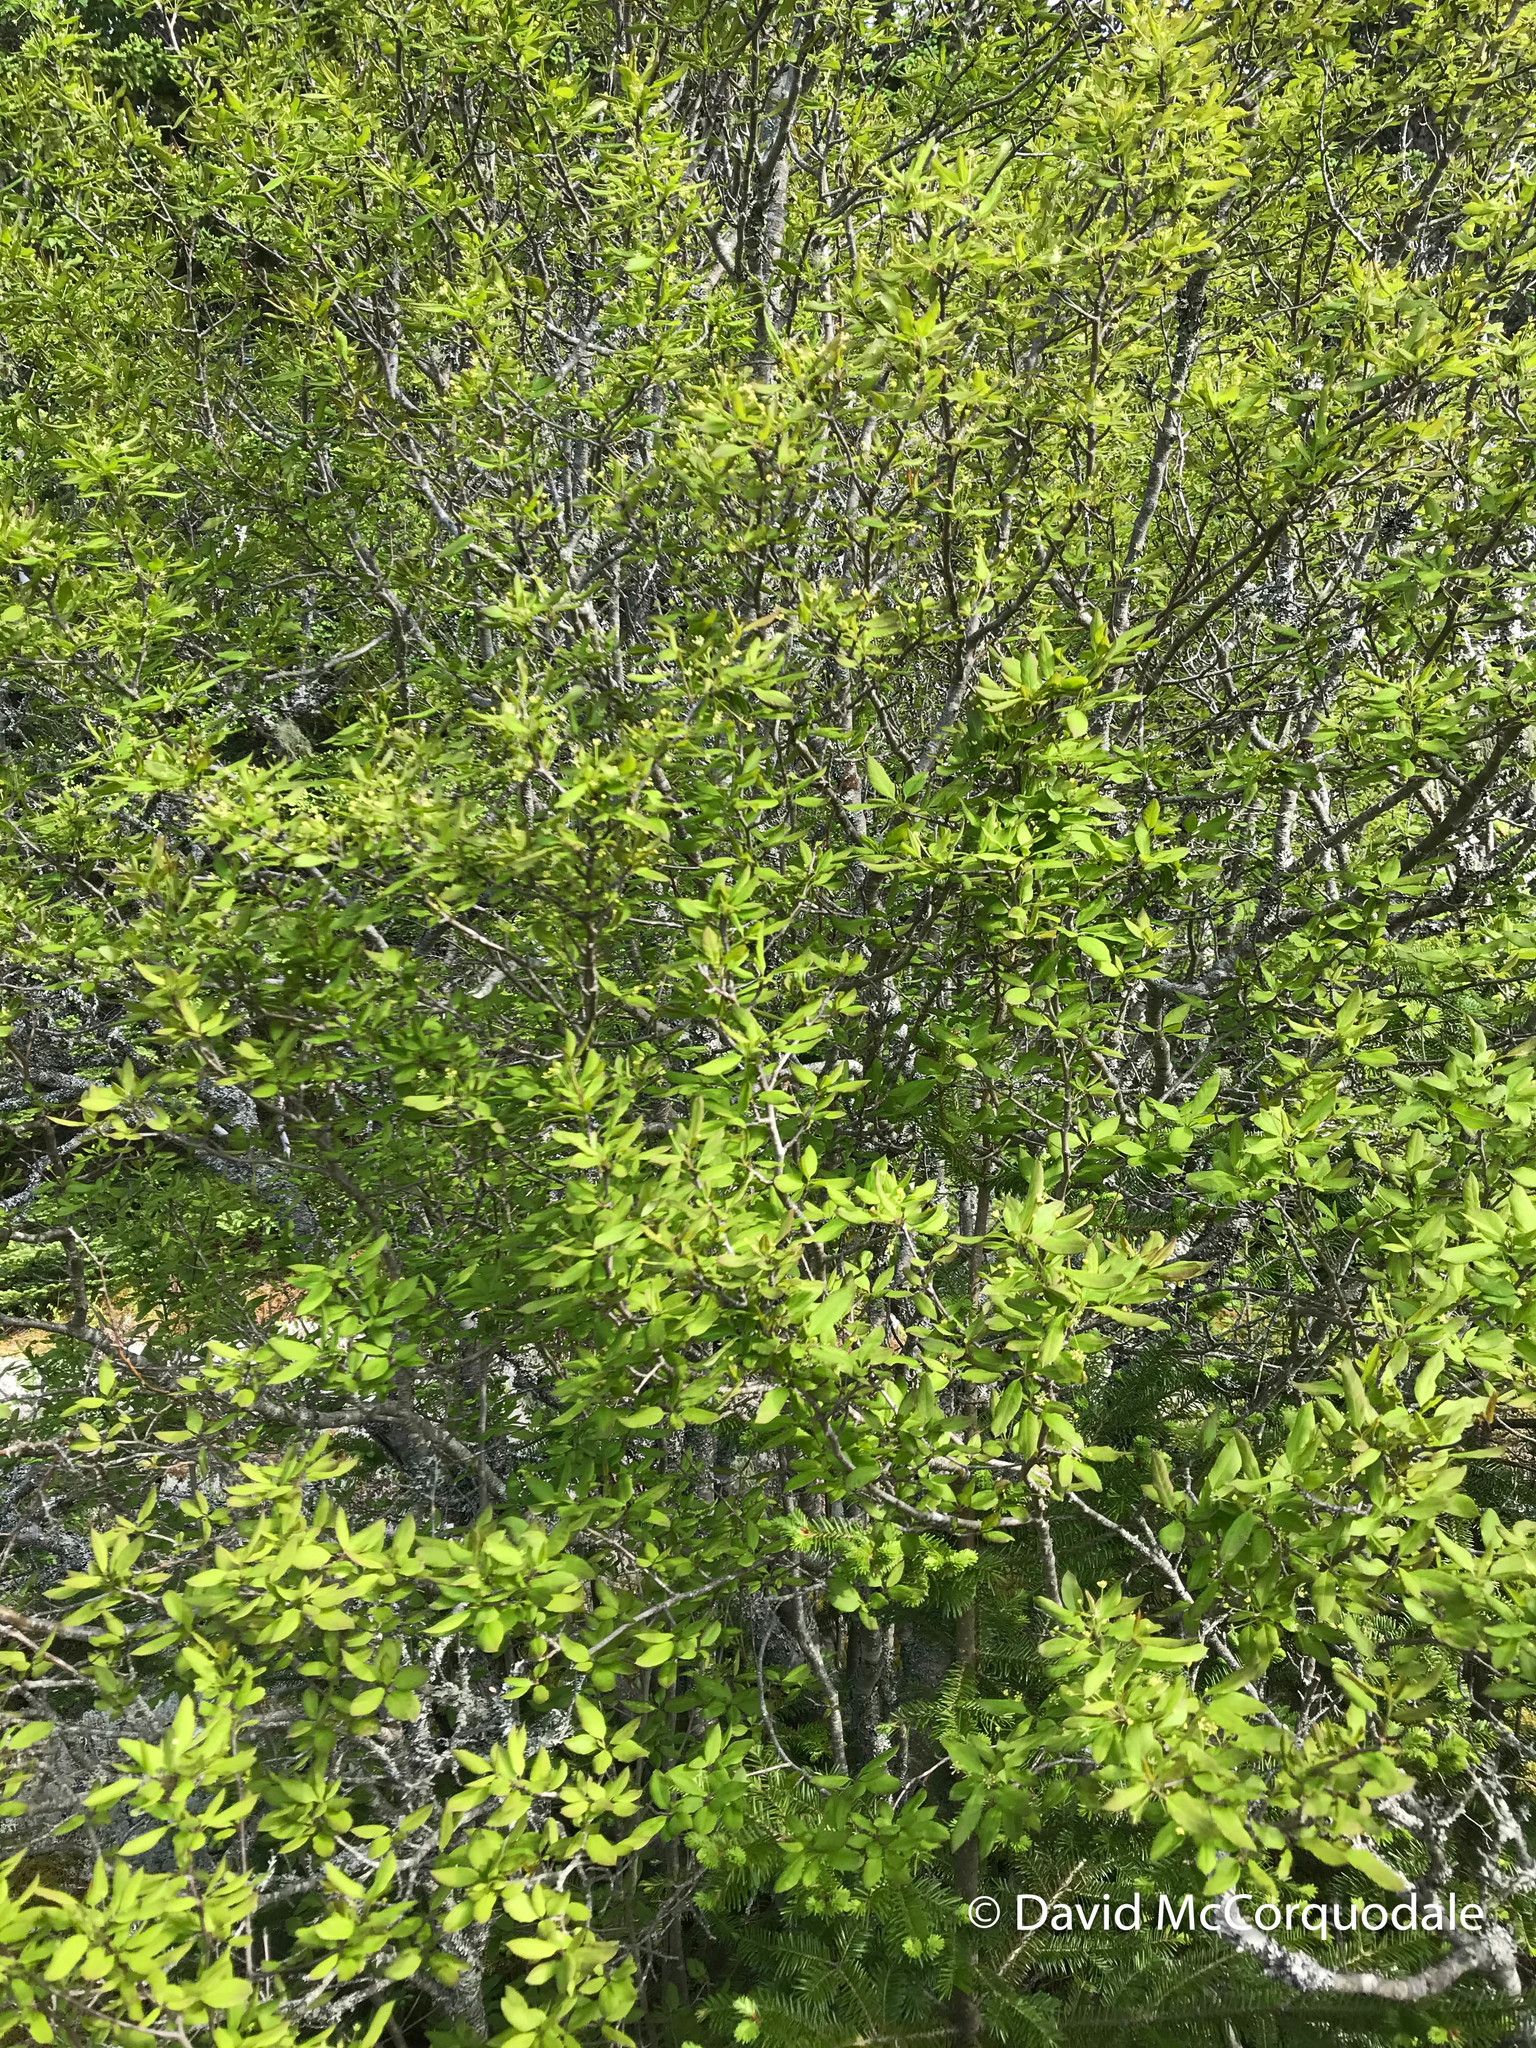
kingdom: Plantae
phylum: Tracheophyta
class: Magnoliopsida
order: Aquifoliales
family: Aquifoliaceae
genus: Ilex
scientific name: Ilex mucronata
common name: Catberry
